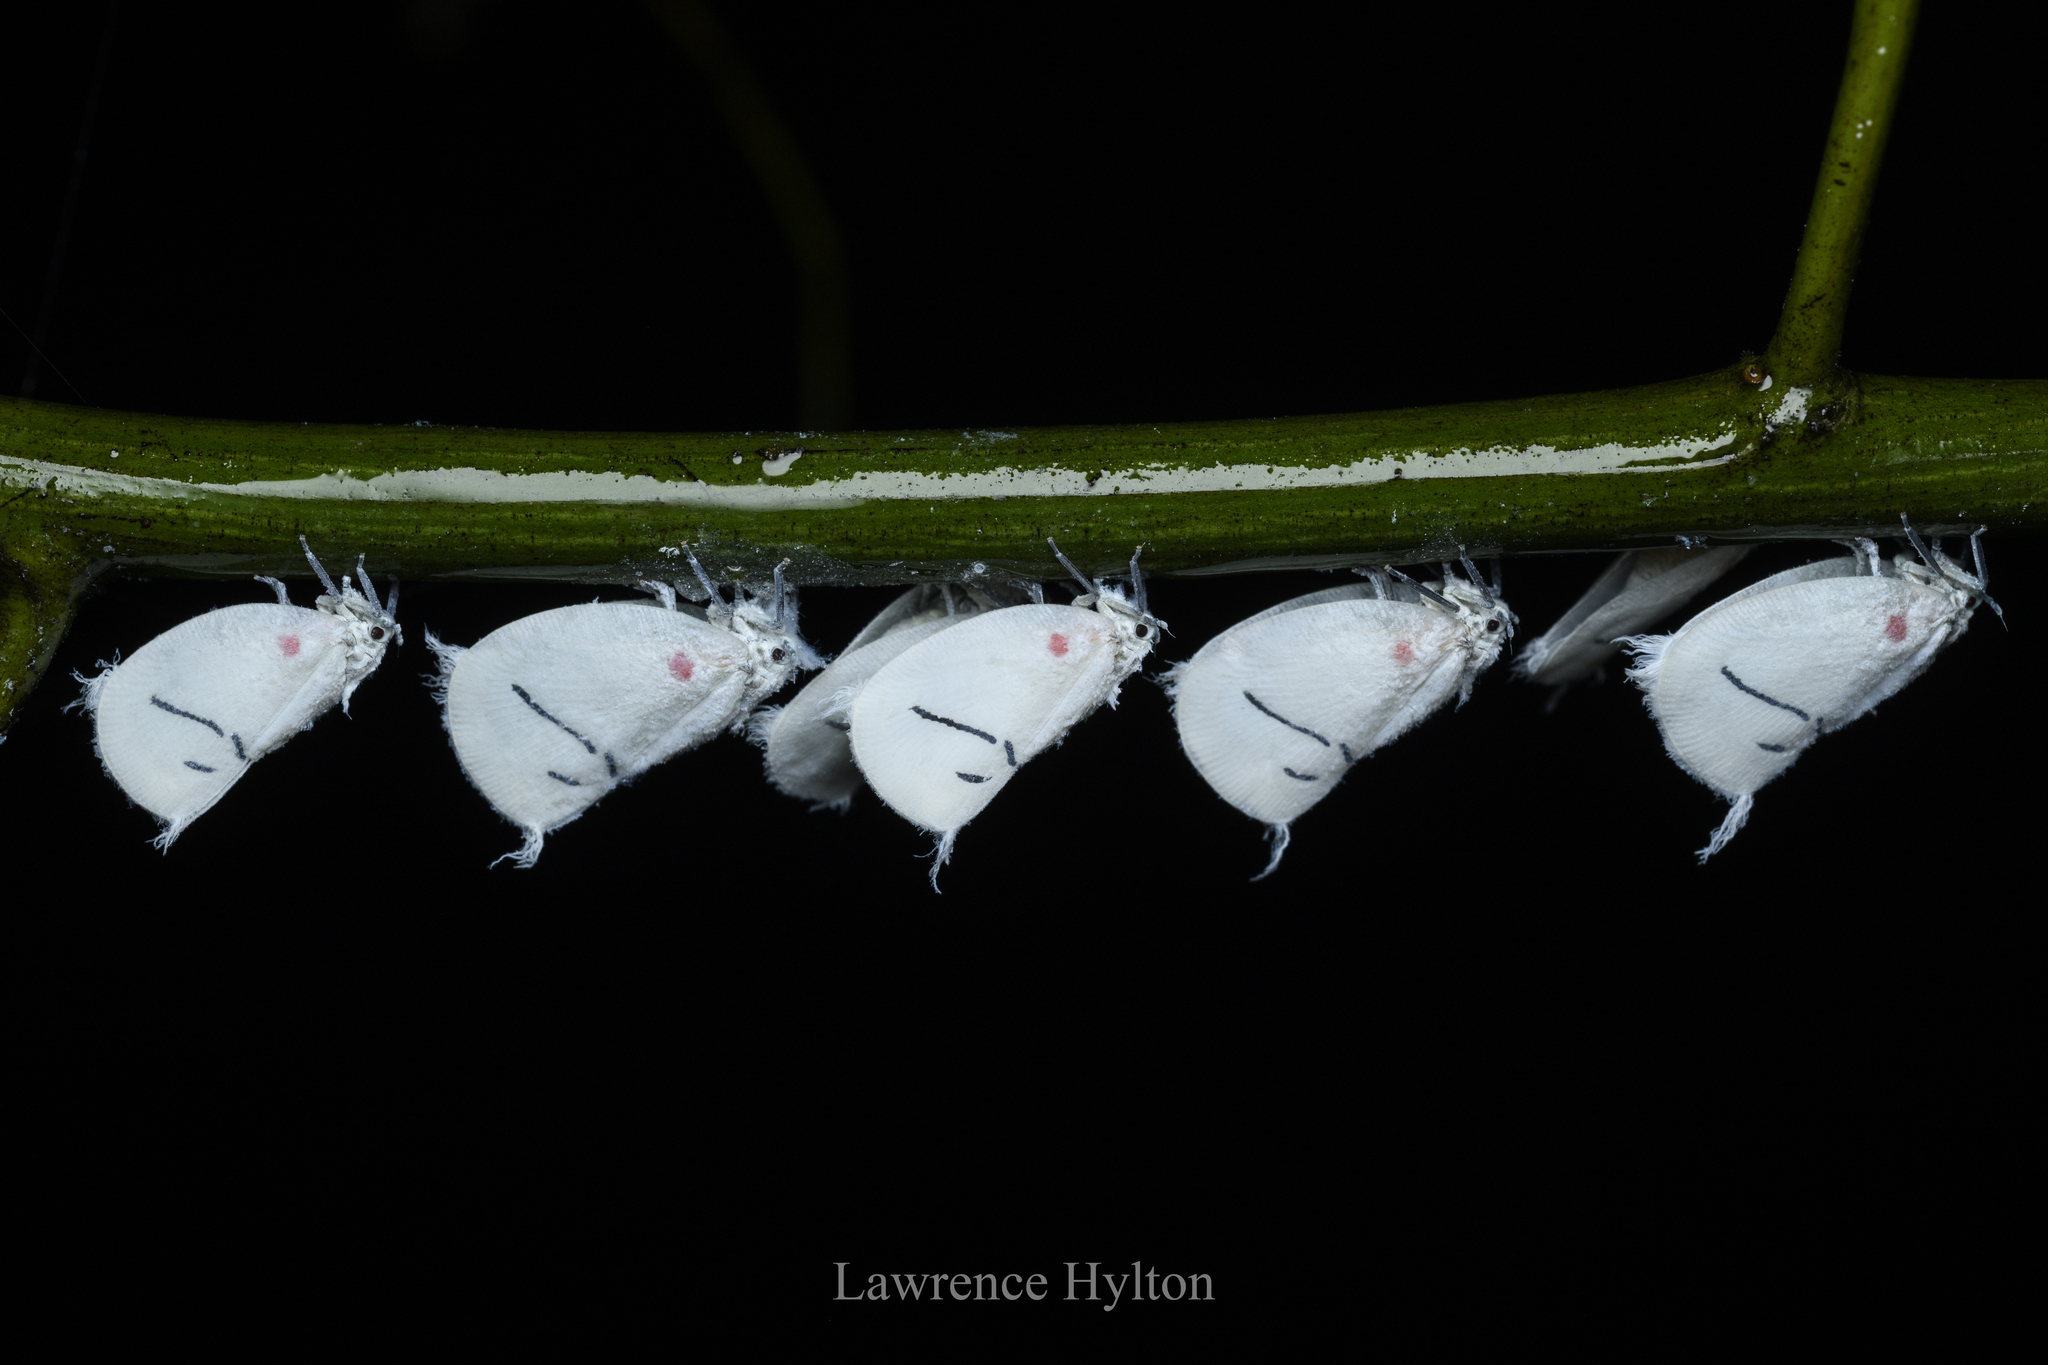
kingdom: Animalia
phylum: Arthropoda
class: Insecta
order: Hemiptera
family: Flatidae
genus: Cerynia
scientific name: Cerynia maria
